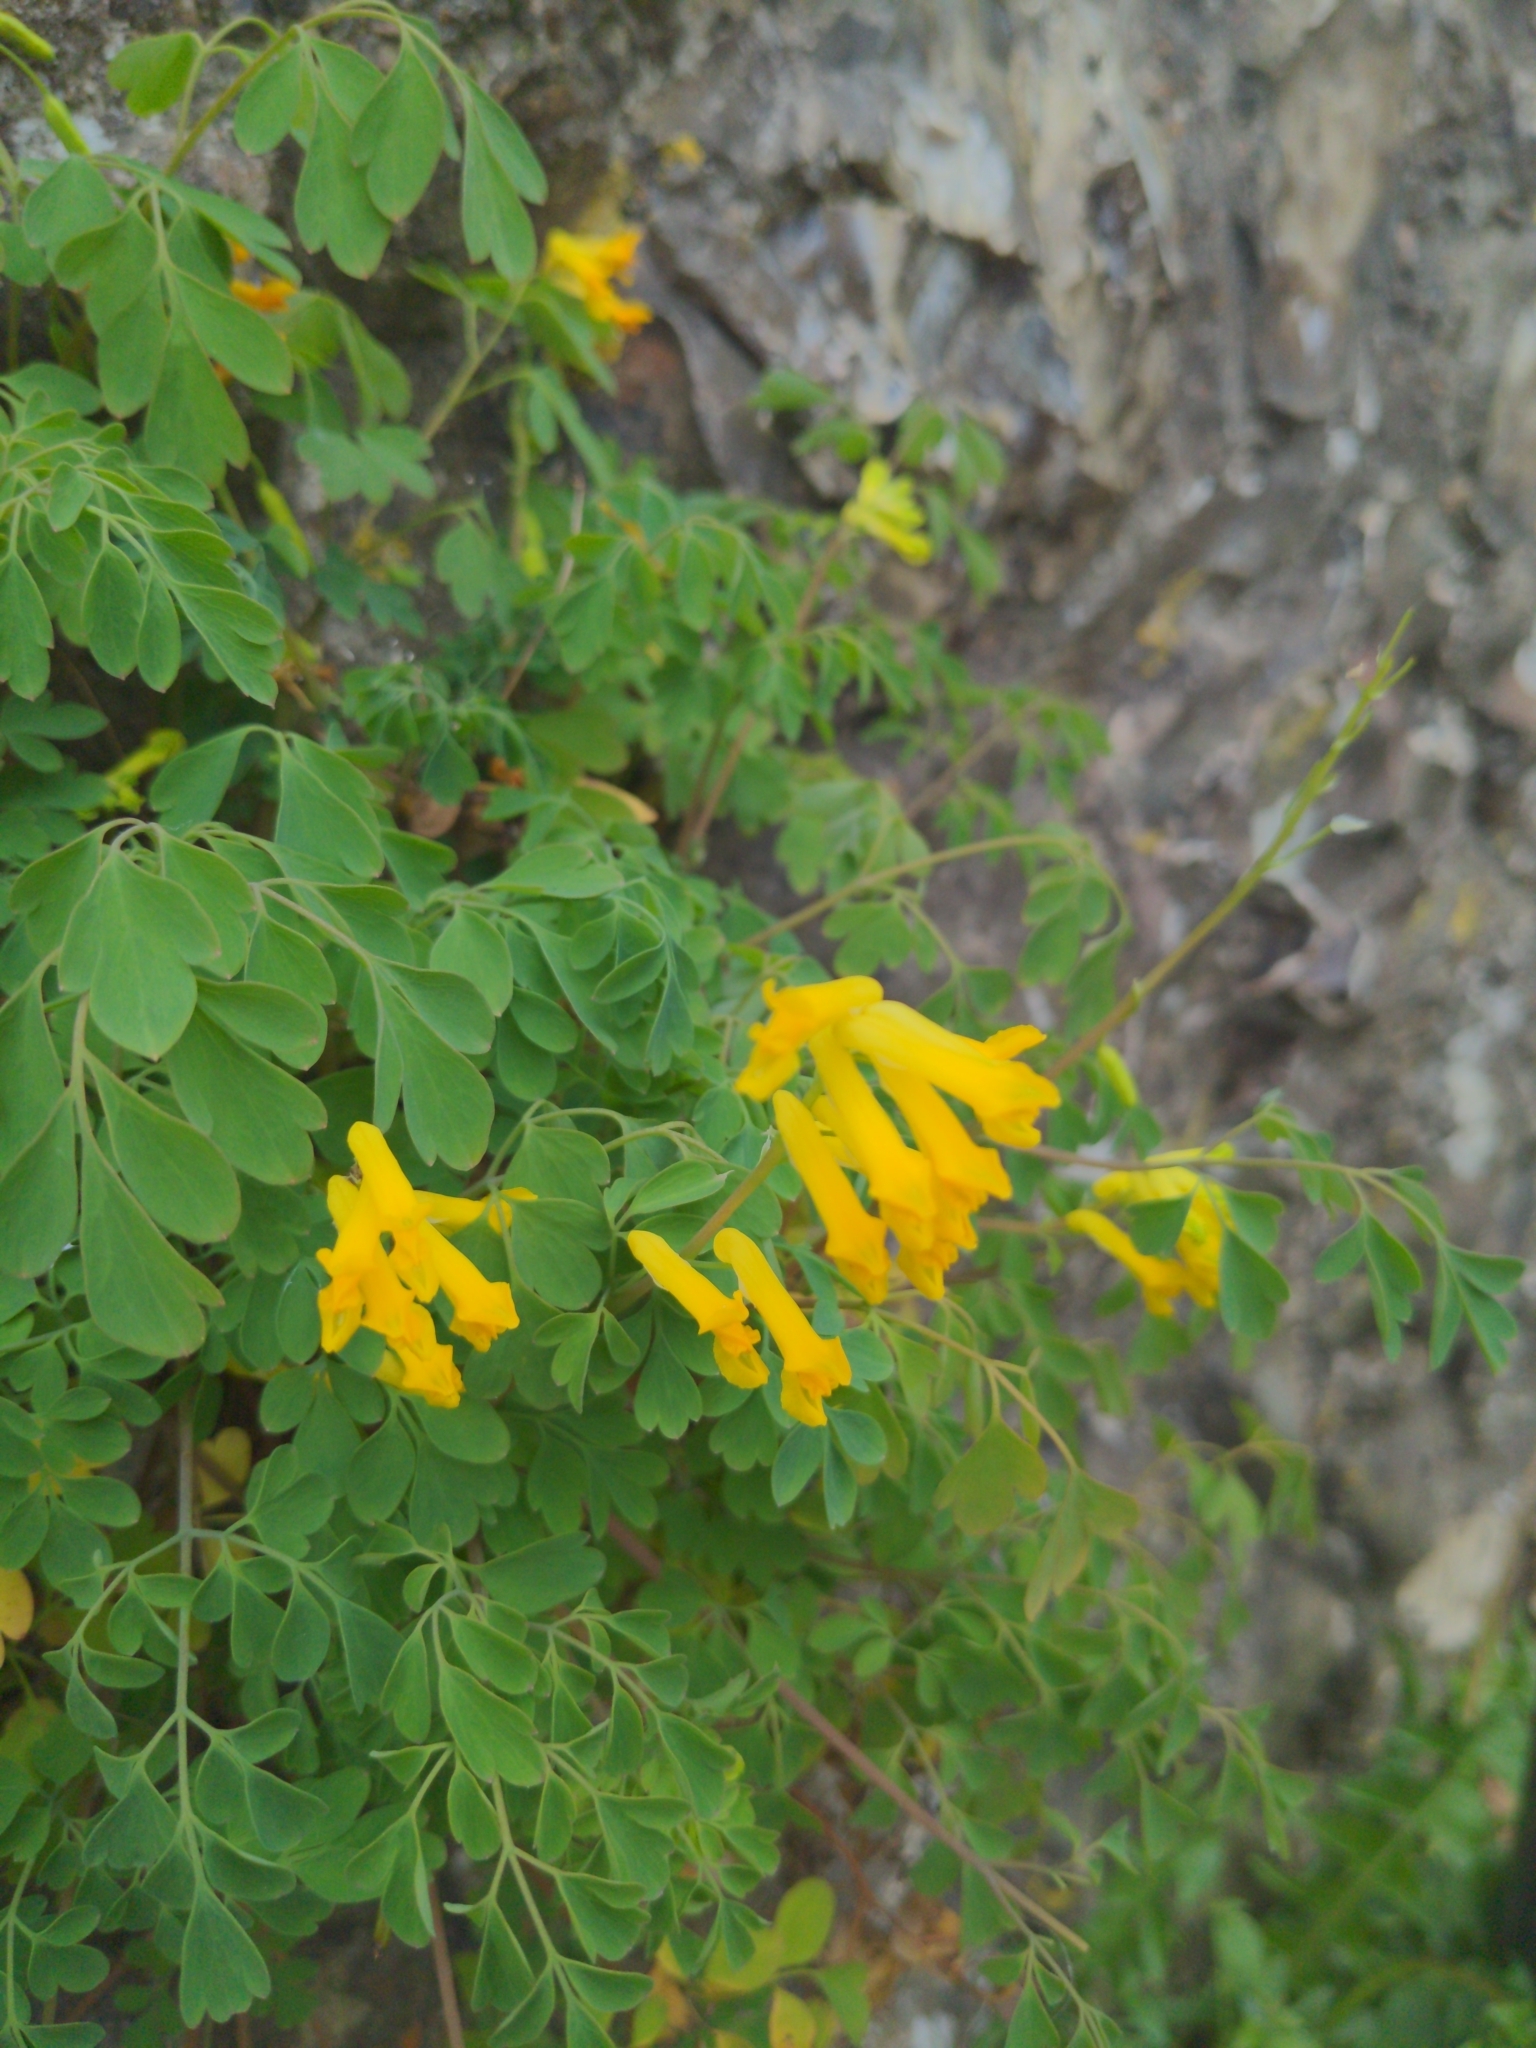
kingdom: Plantae
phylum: Tracheophyta
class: Magnoliopsida
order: Ranunculales
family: Papaveraceae
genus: Pseudofumaria
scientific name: Pseudofumaria lutea
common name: Yellow corydalis
